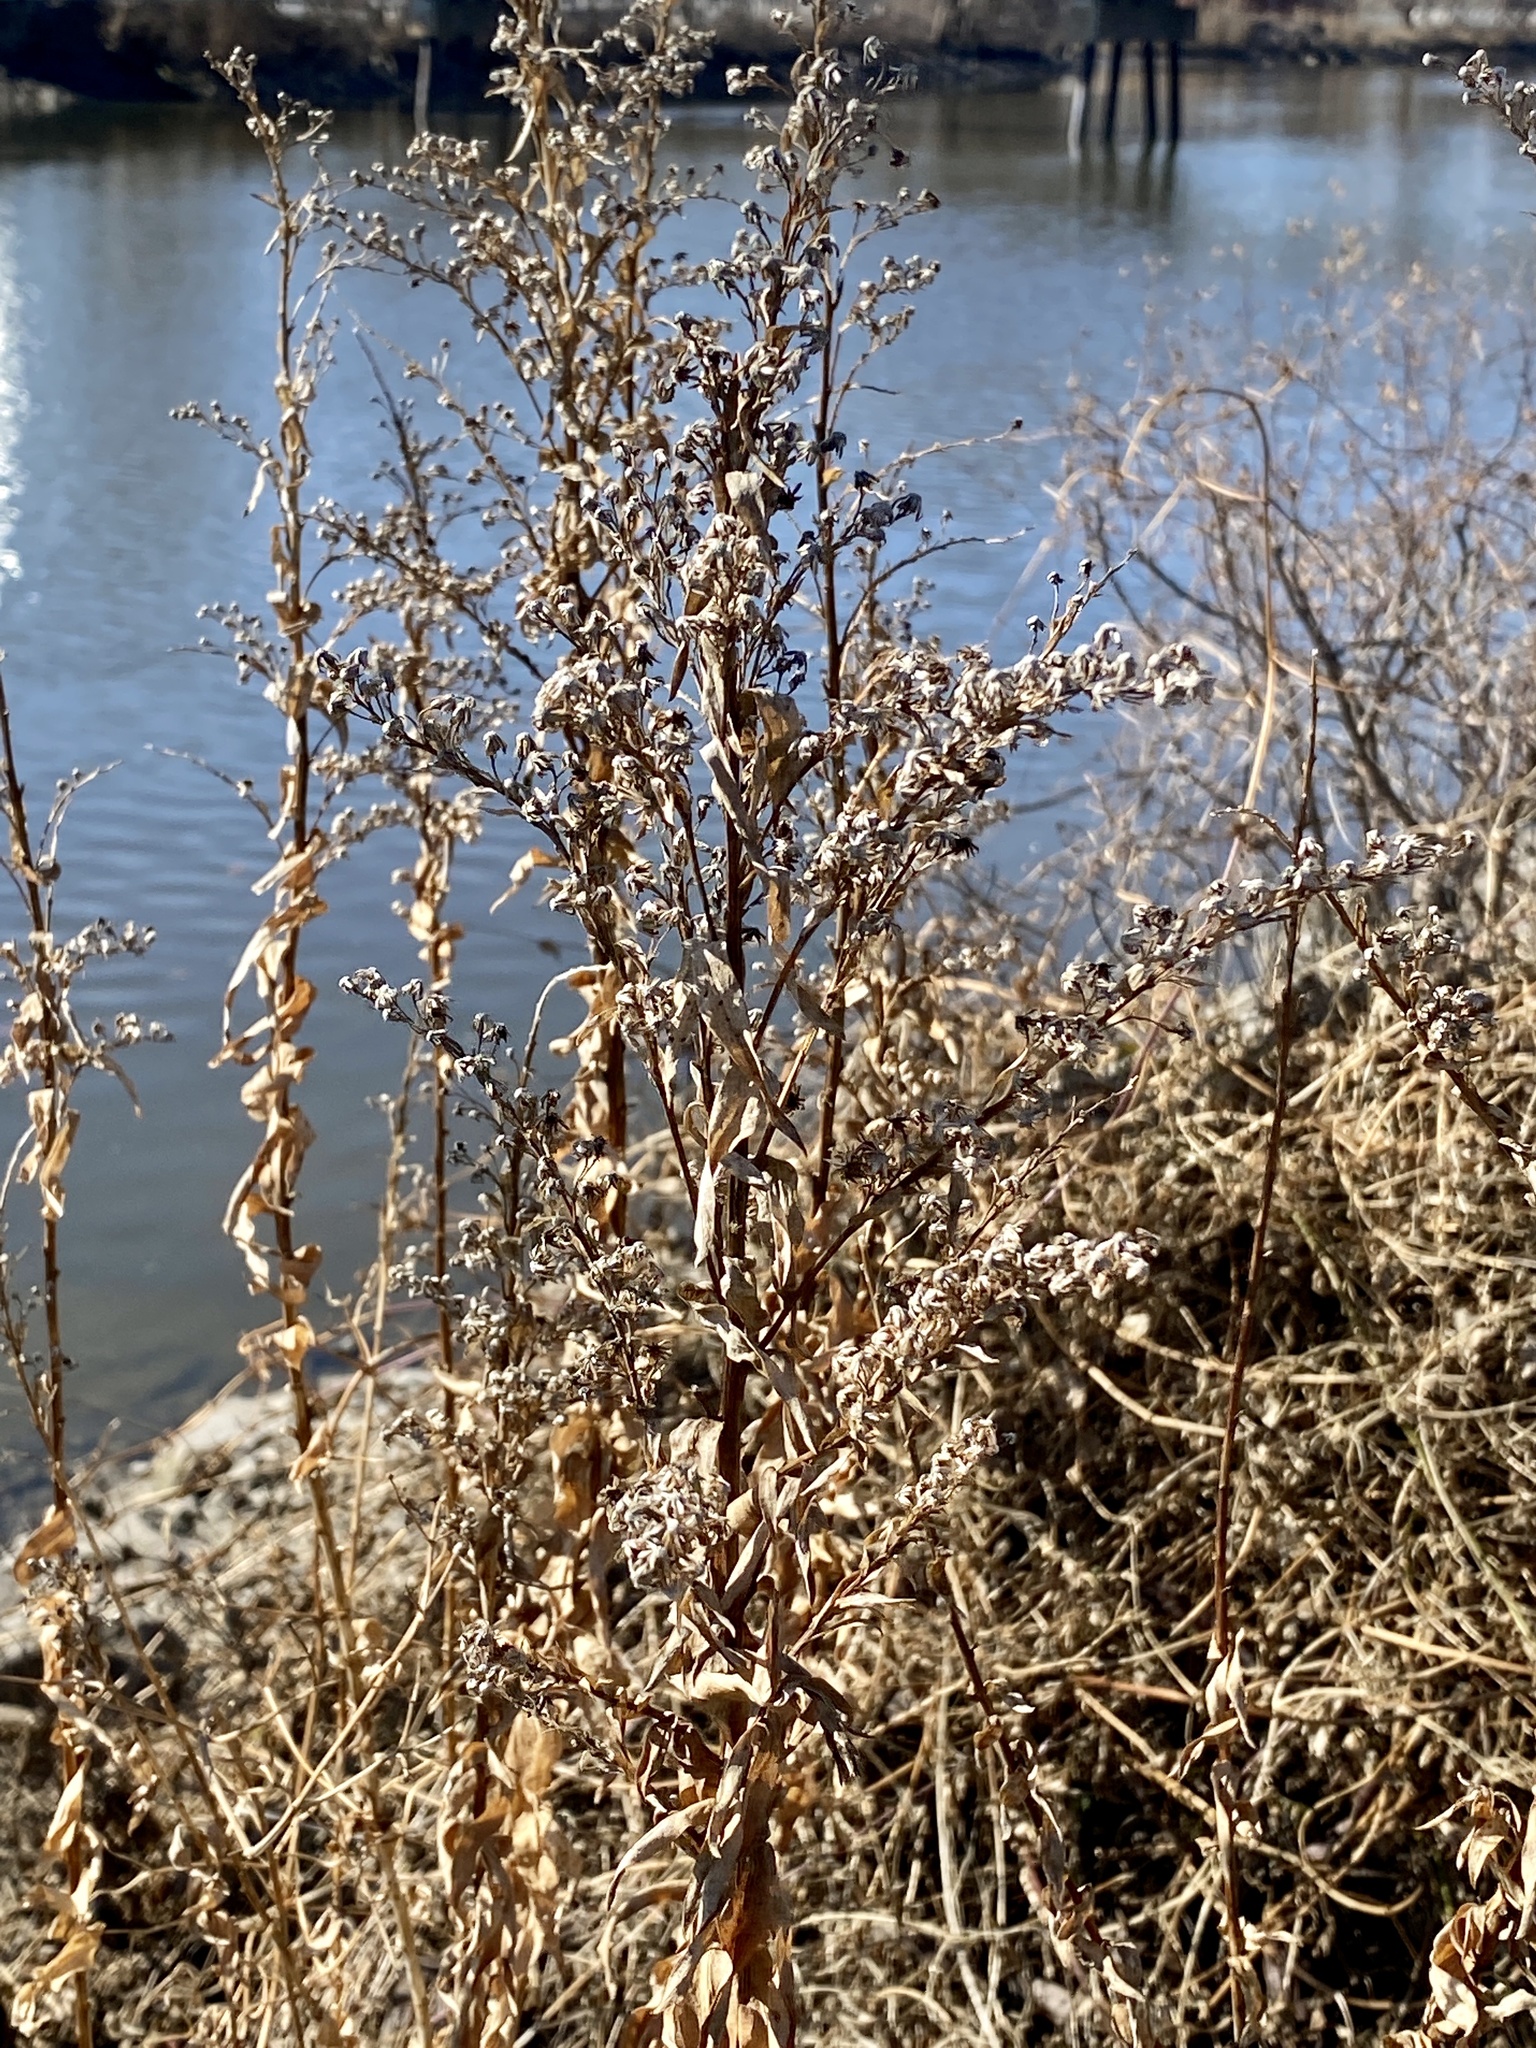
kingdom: Plantae
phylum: Tracheophyta
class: Magnoliopsida
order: Asterales
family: Asteraceae
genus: Solidago
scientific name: Solidago sempervirens
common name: Salt-marsh goldenrod
